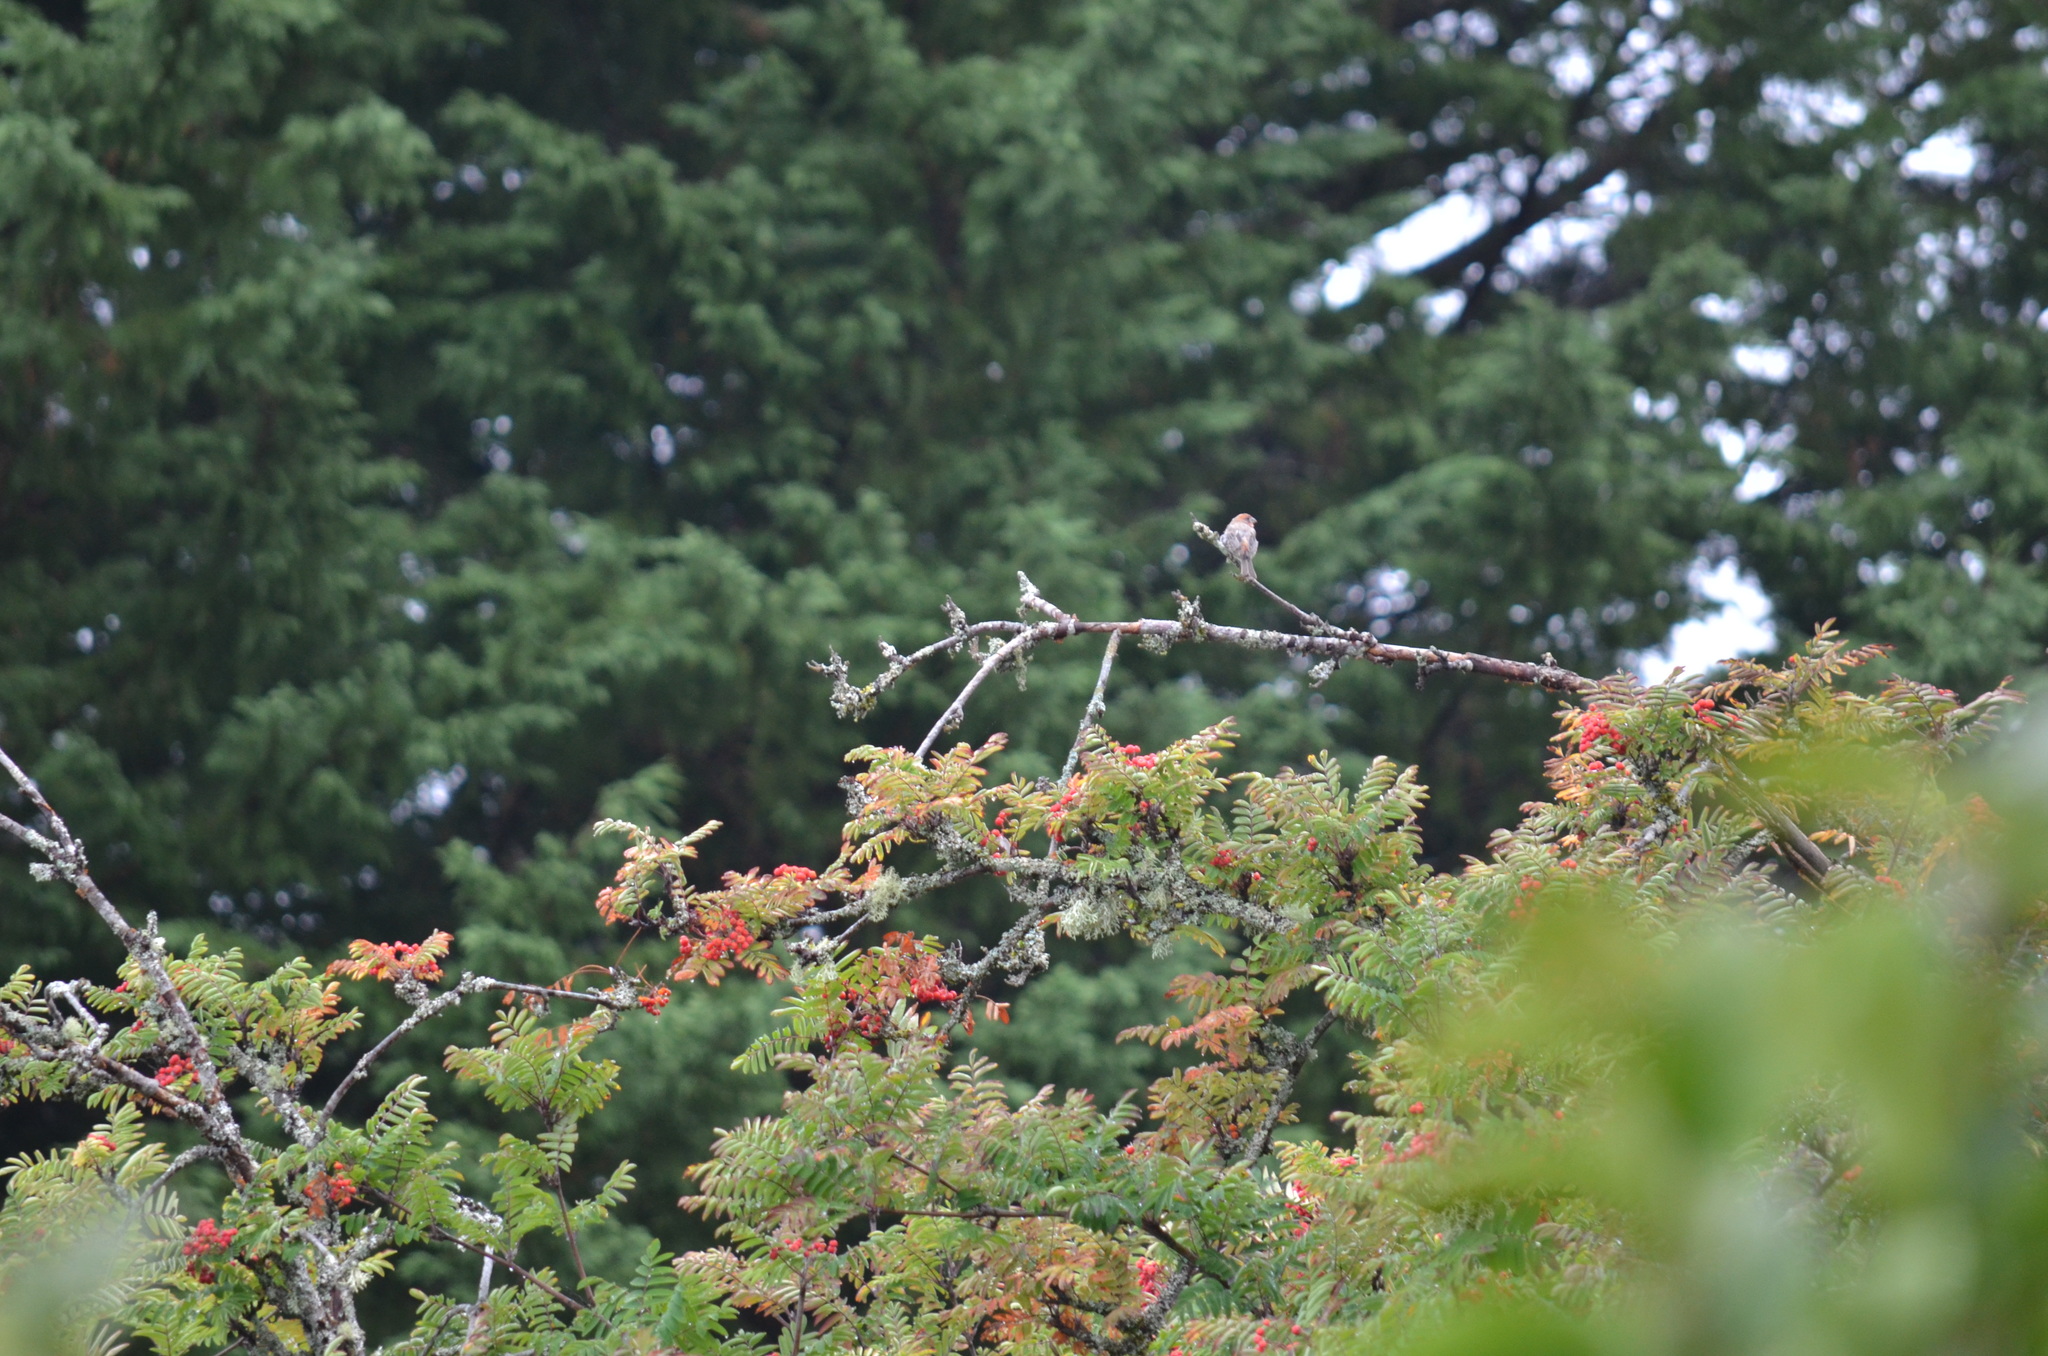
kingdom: Animalia
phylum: Chordata
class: Aves
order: Passeriformes
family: Fringillidae
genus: Haemorhous
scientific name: Haemorhous mexicanus
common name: House finch
